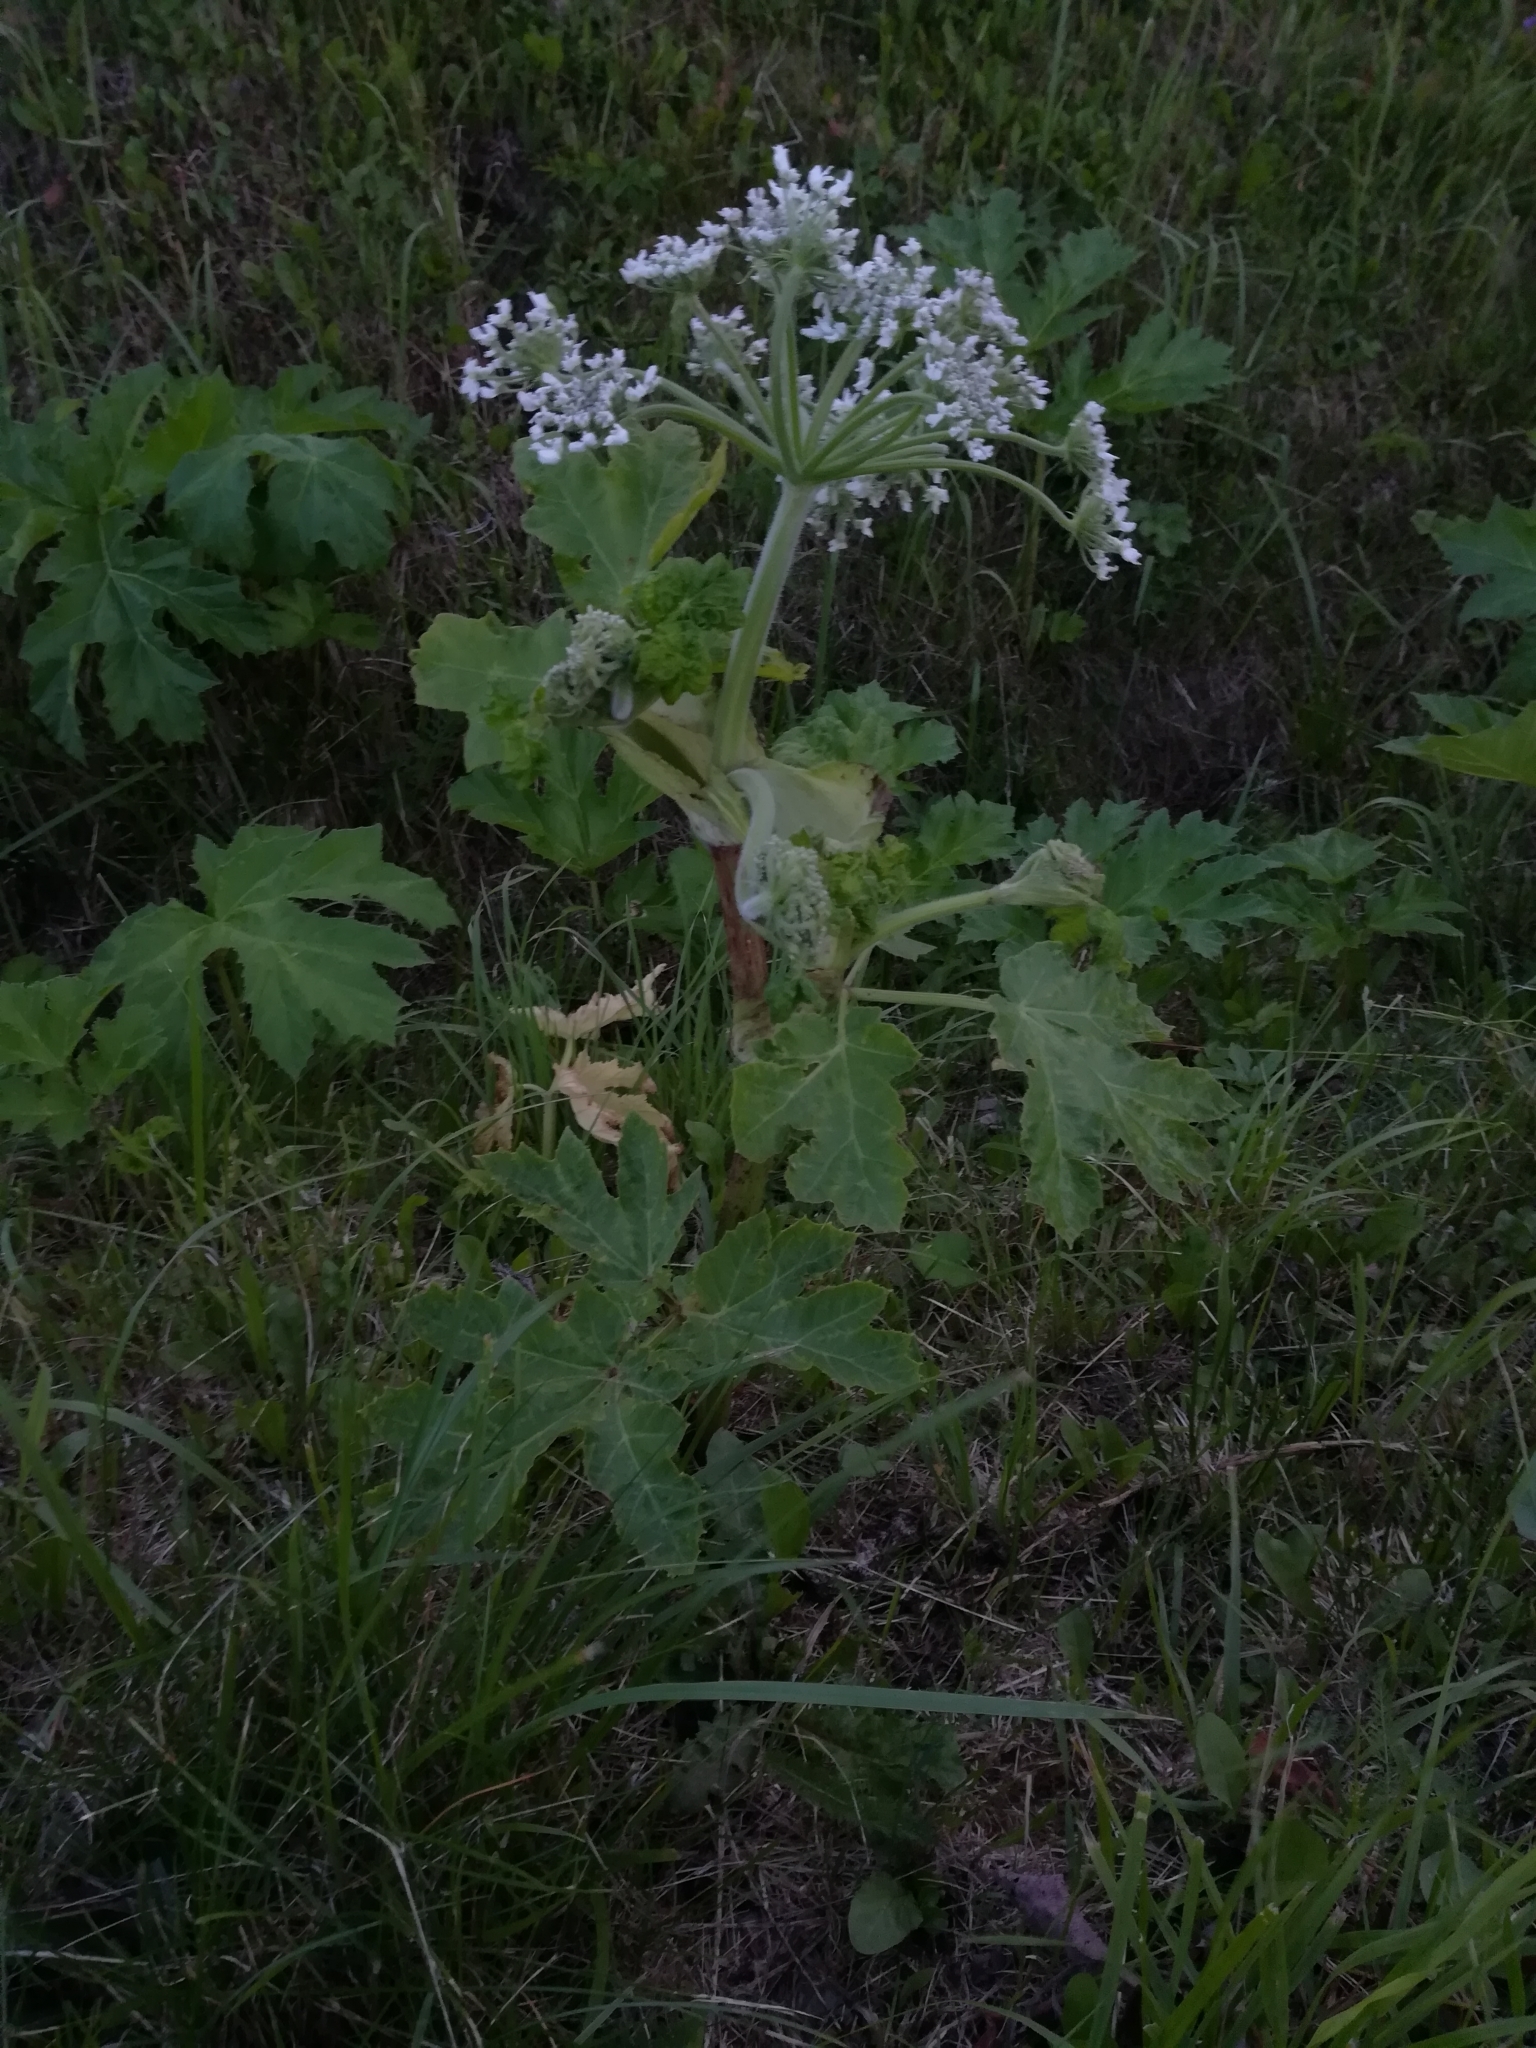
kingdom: Plantae
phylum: Tracheophyta
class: Magnoliopsida
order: Apiales
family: Apiaceae
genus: Heracleum
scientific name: Heracleum sosnowskyi
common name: Sosnowsky's hogweed
